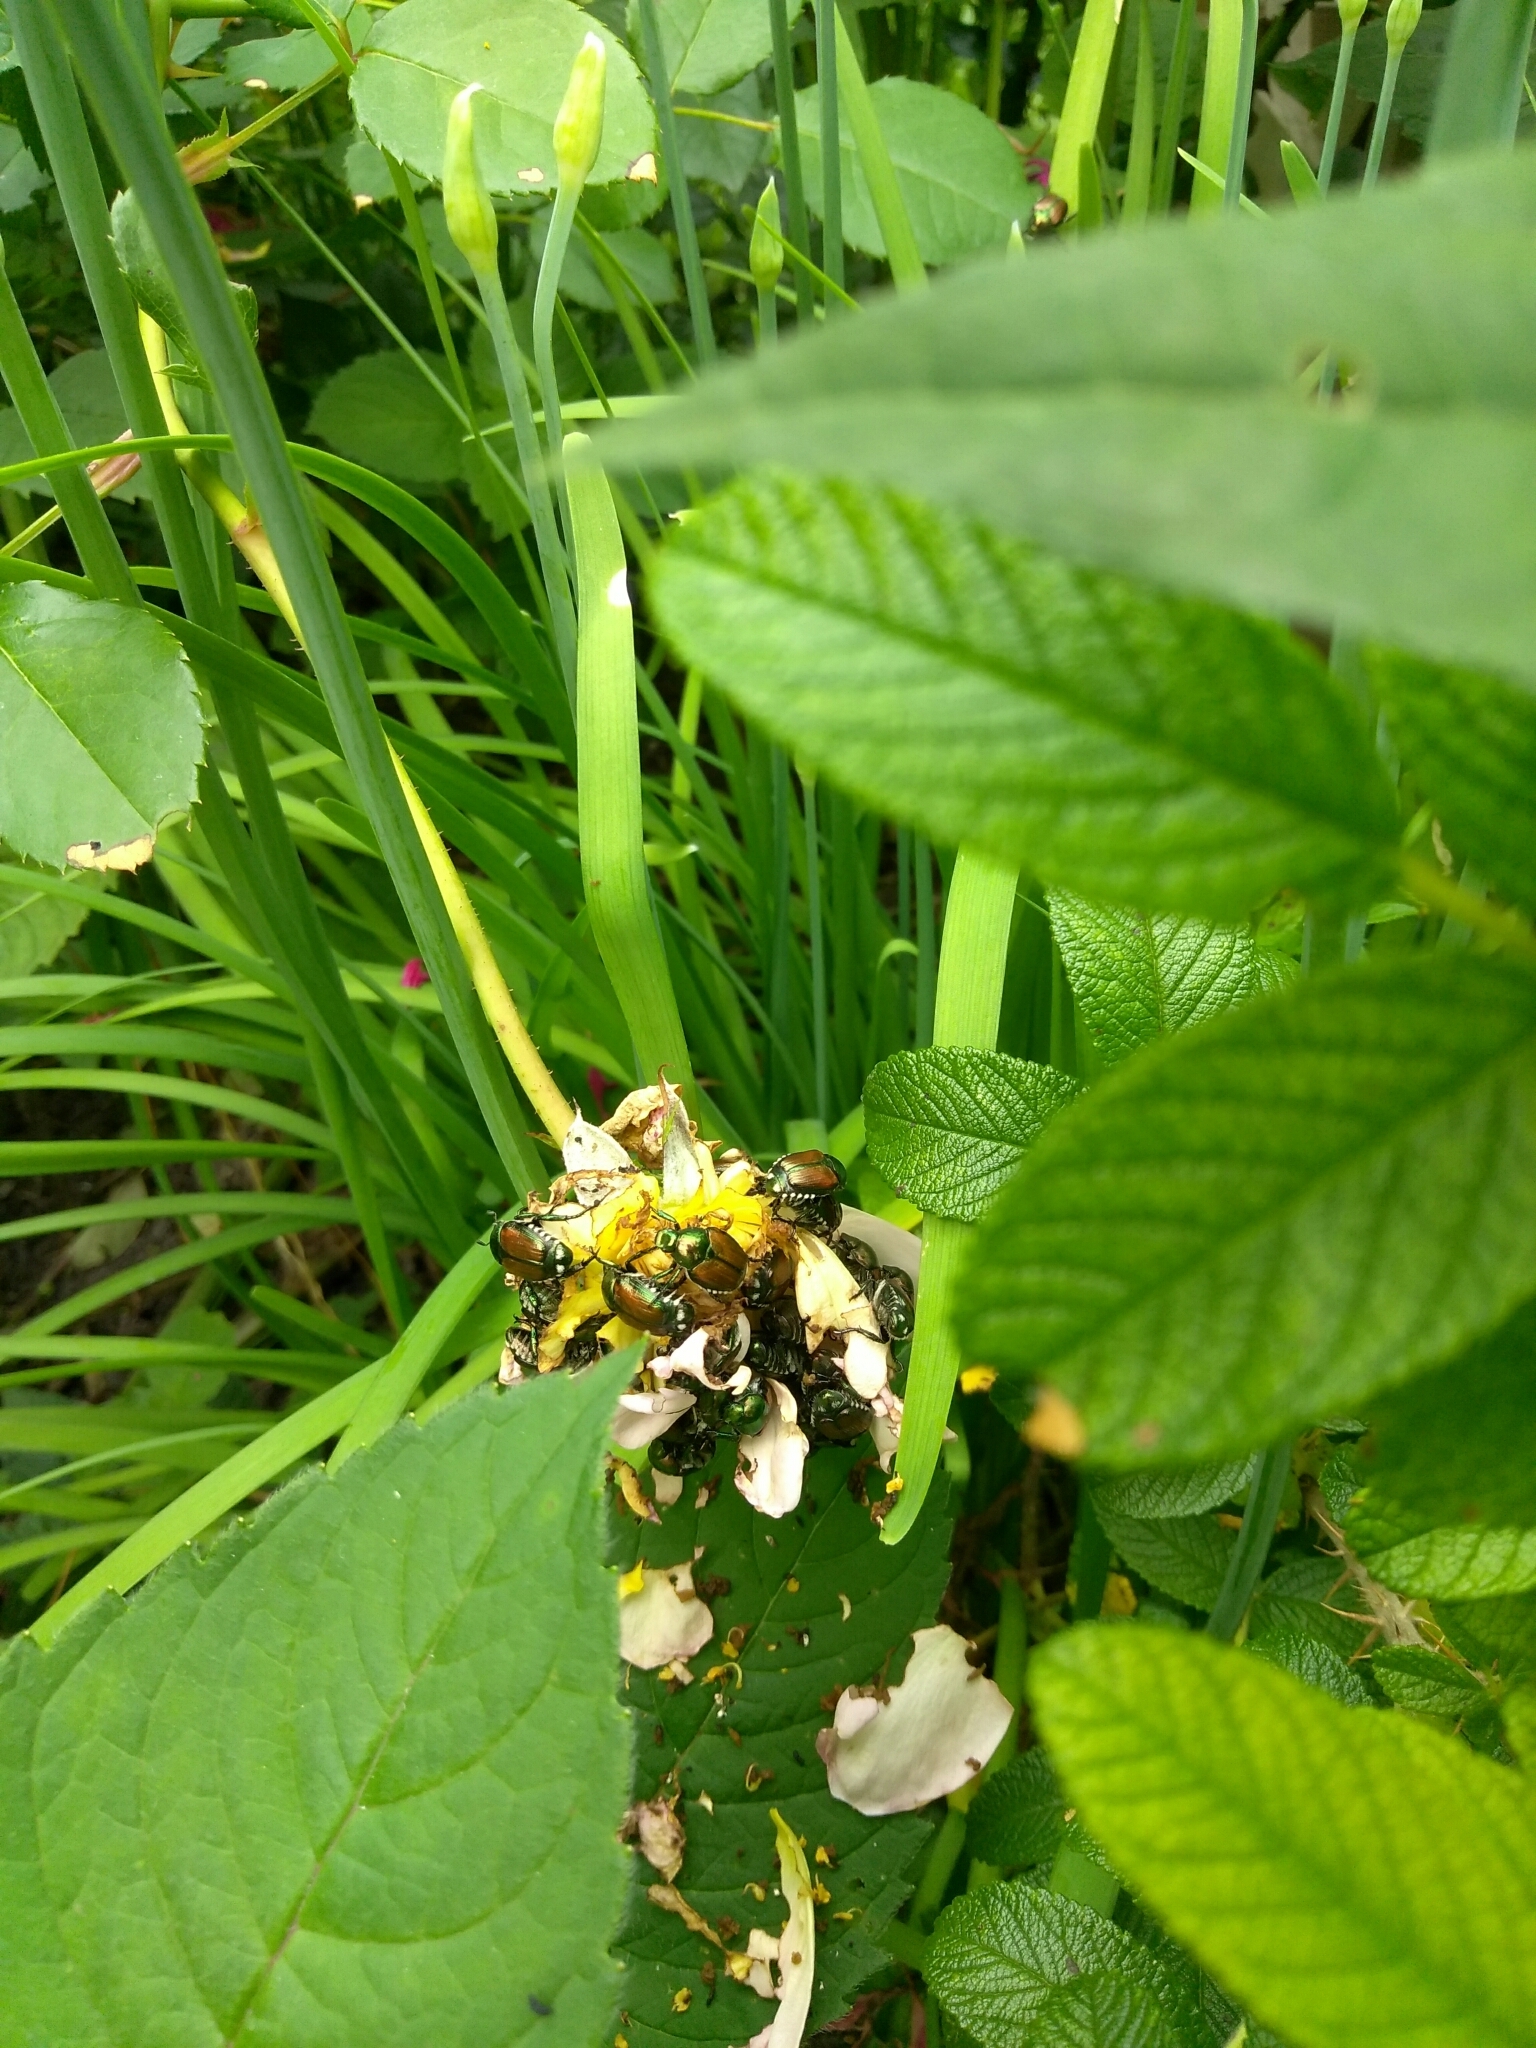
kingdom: Animalia
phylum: Arthropoda
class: Insecta
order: Coleoptera
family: Scarabaeidae
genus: Popillia
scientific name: Popillia japonica
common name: Japanese beetle
